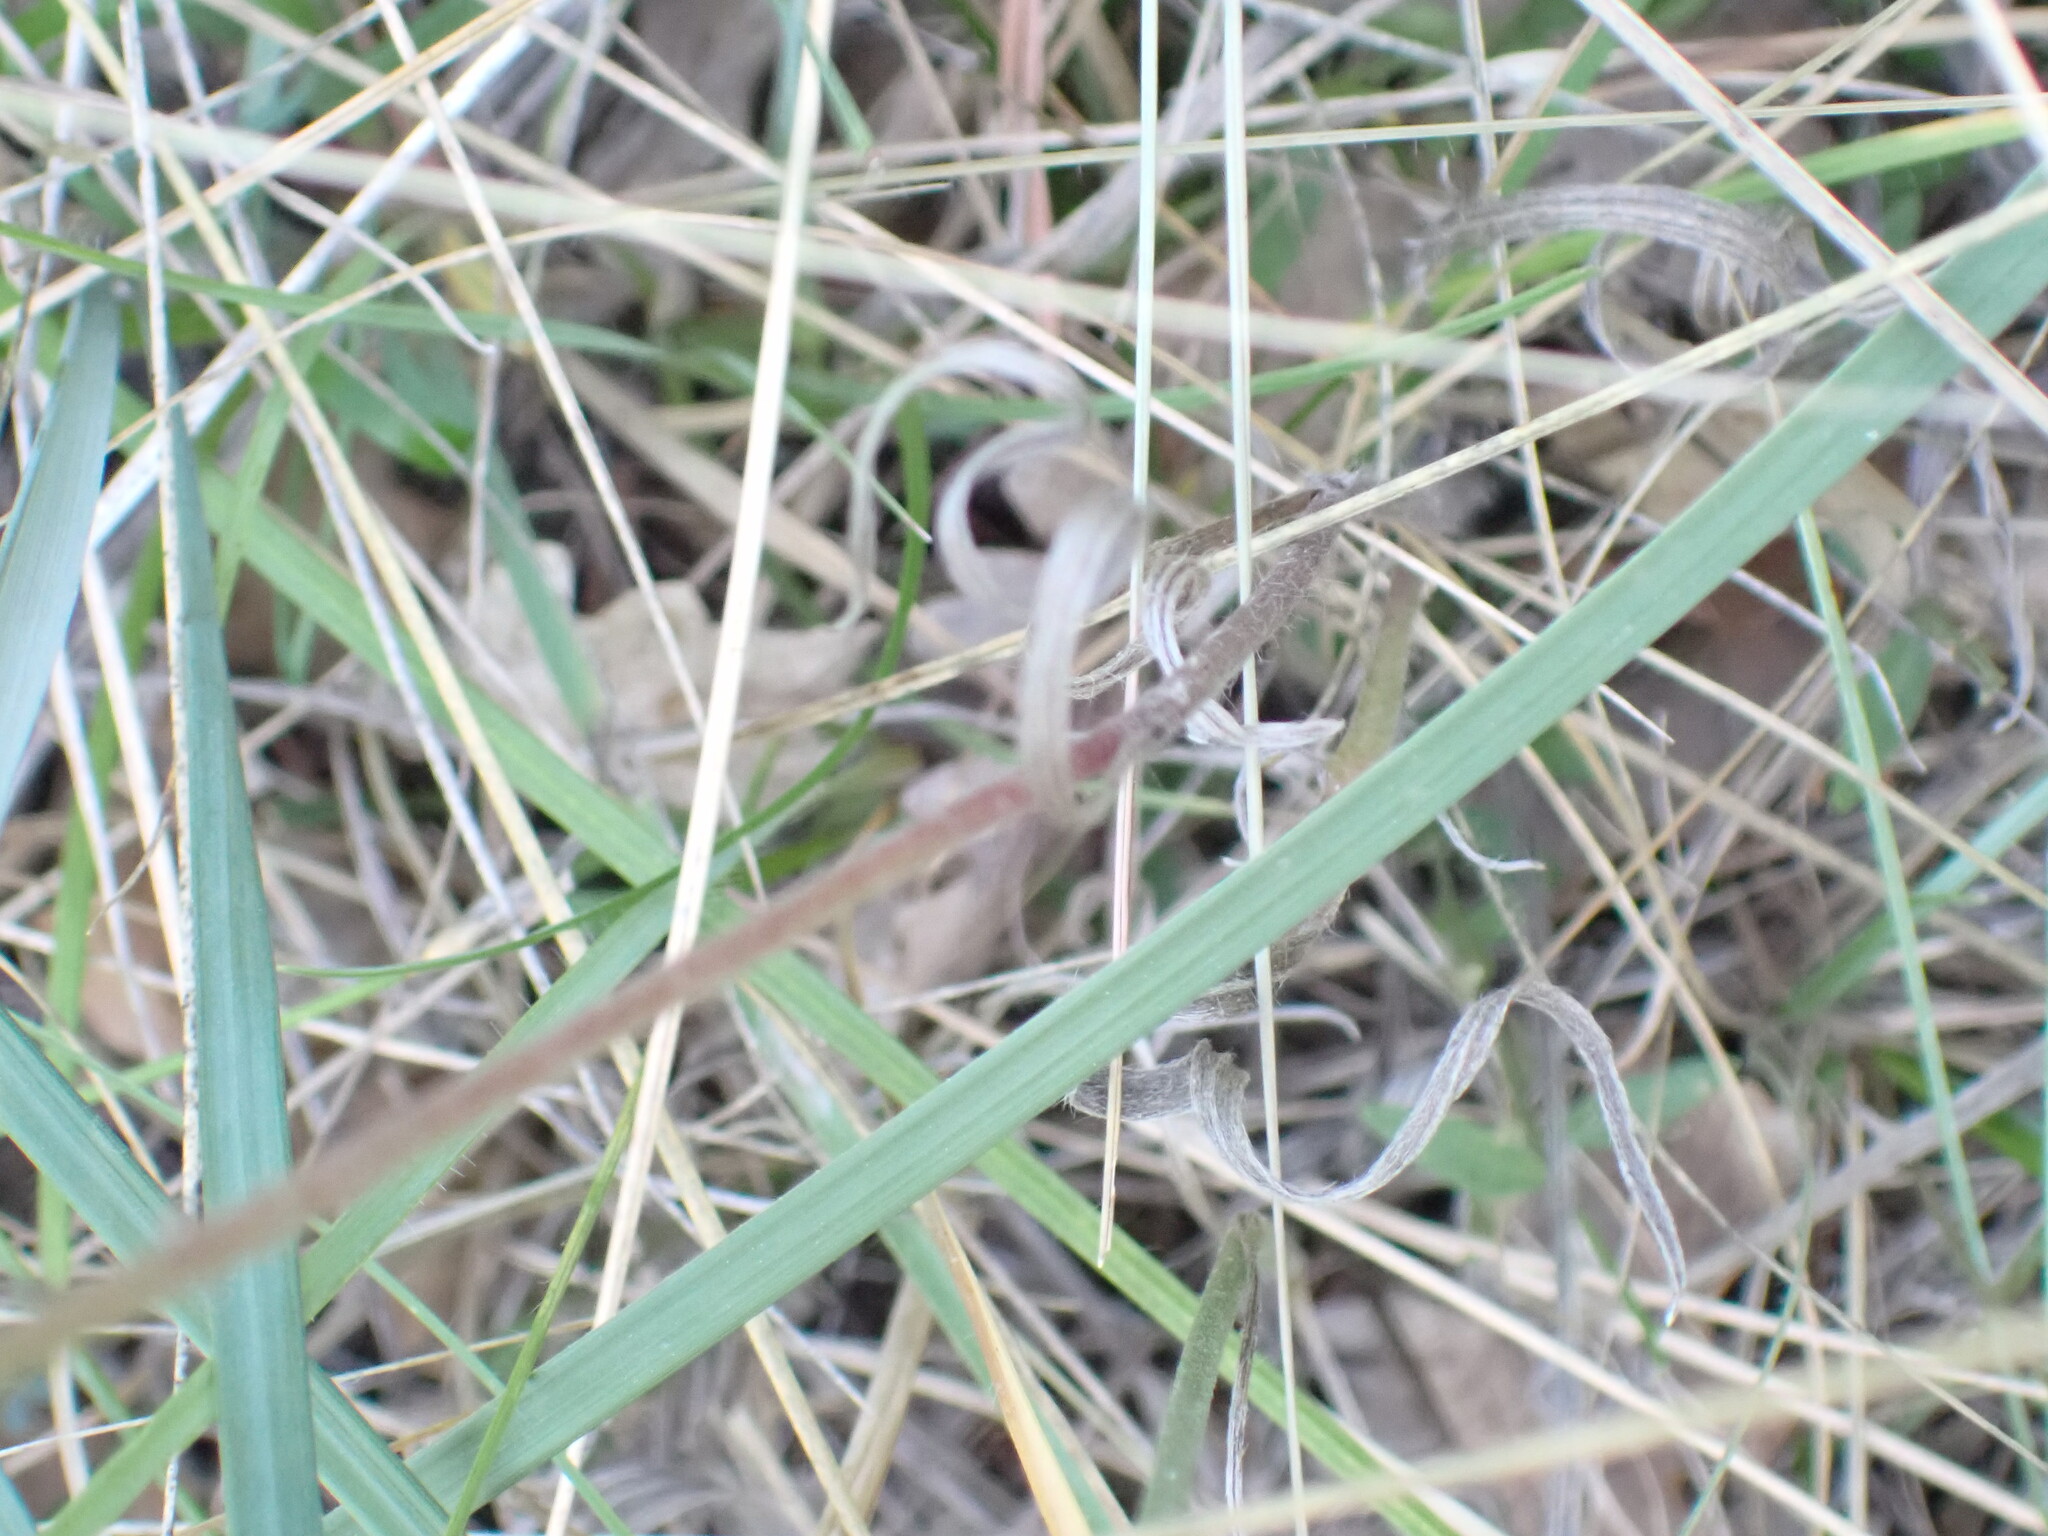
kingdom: Plantae
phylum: Tracheophyta
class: Magnoliopsida
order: Asterales
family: Asteraceae
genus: Catananche
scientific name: Catananche caerulea
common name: Blue cupidone
